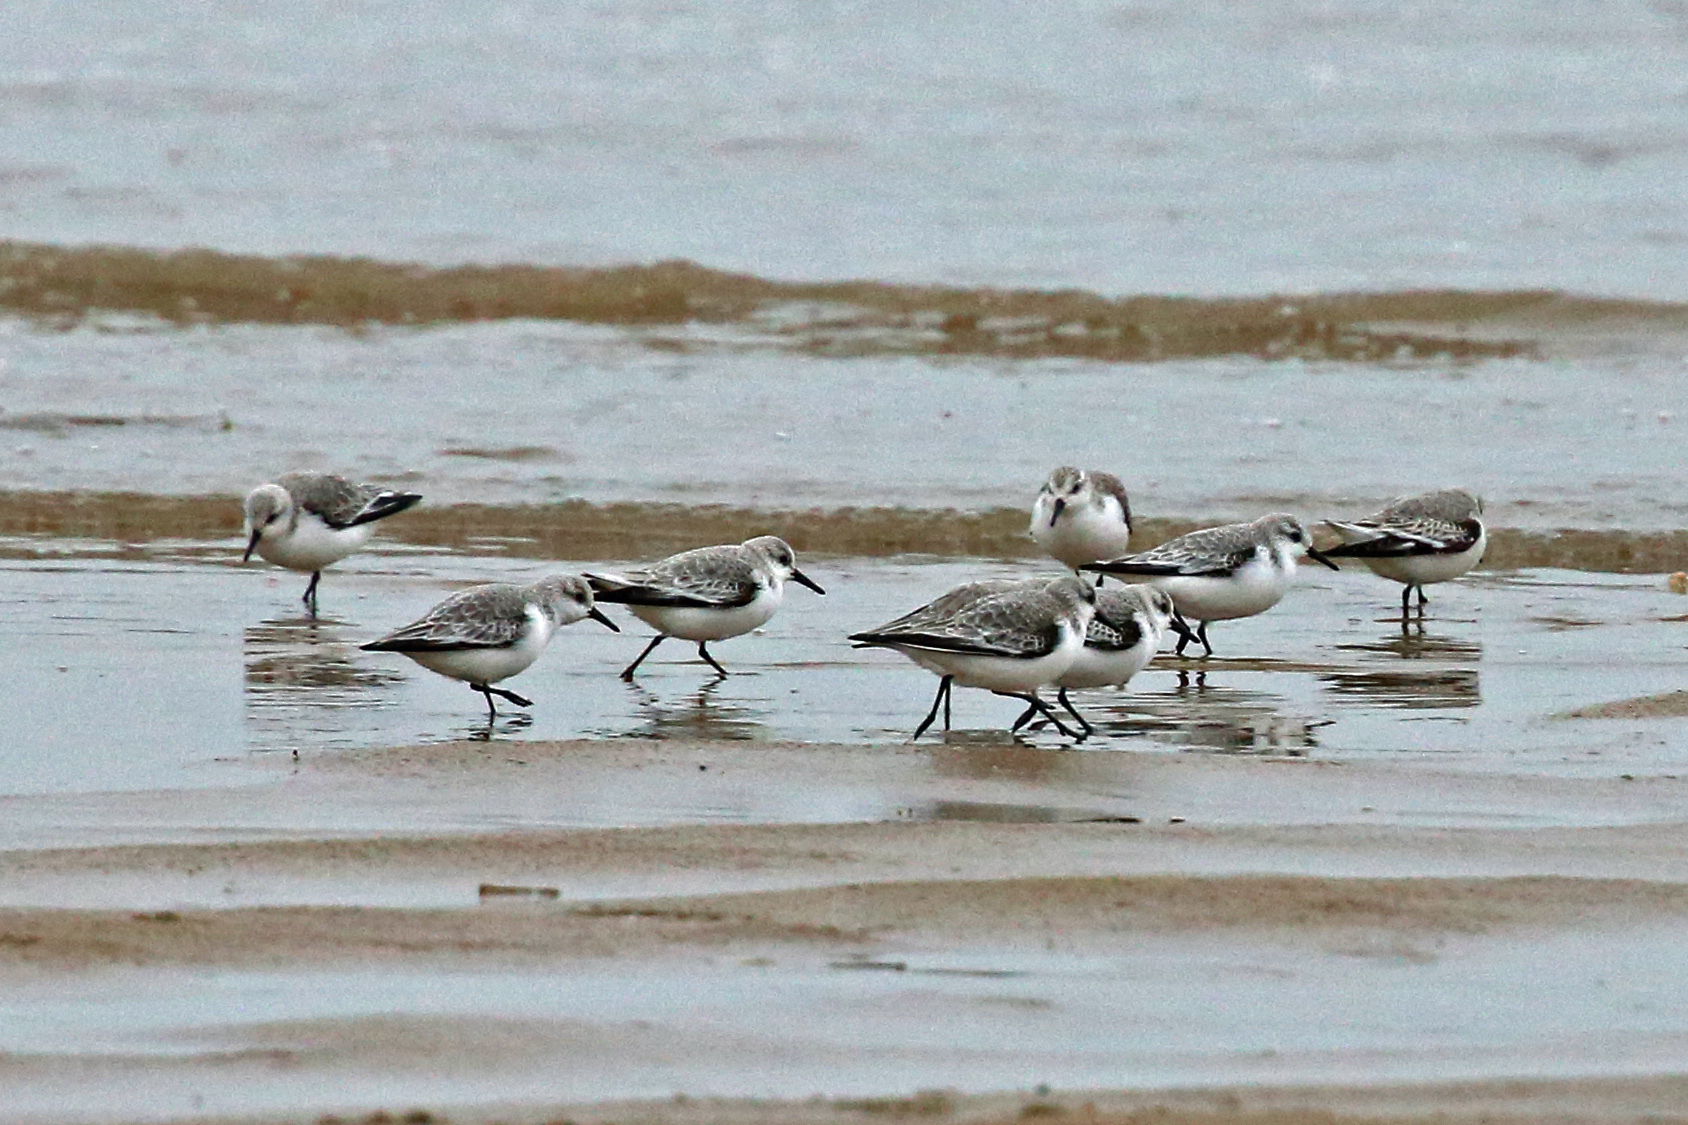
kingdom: Animalia
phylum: Chordata
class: Aves
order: Charadriiformes
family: Scolopacidae
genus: Calidris
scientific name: Calidris alba
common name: Sanderling
